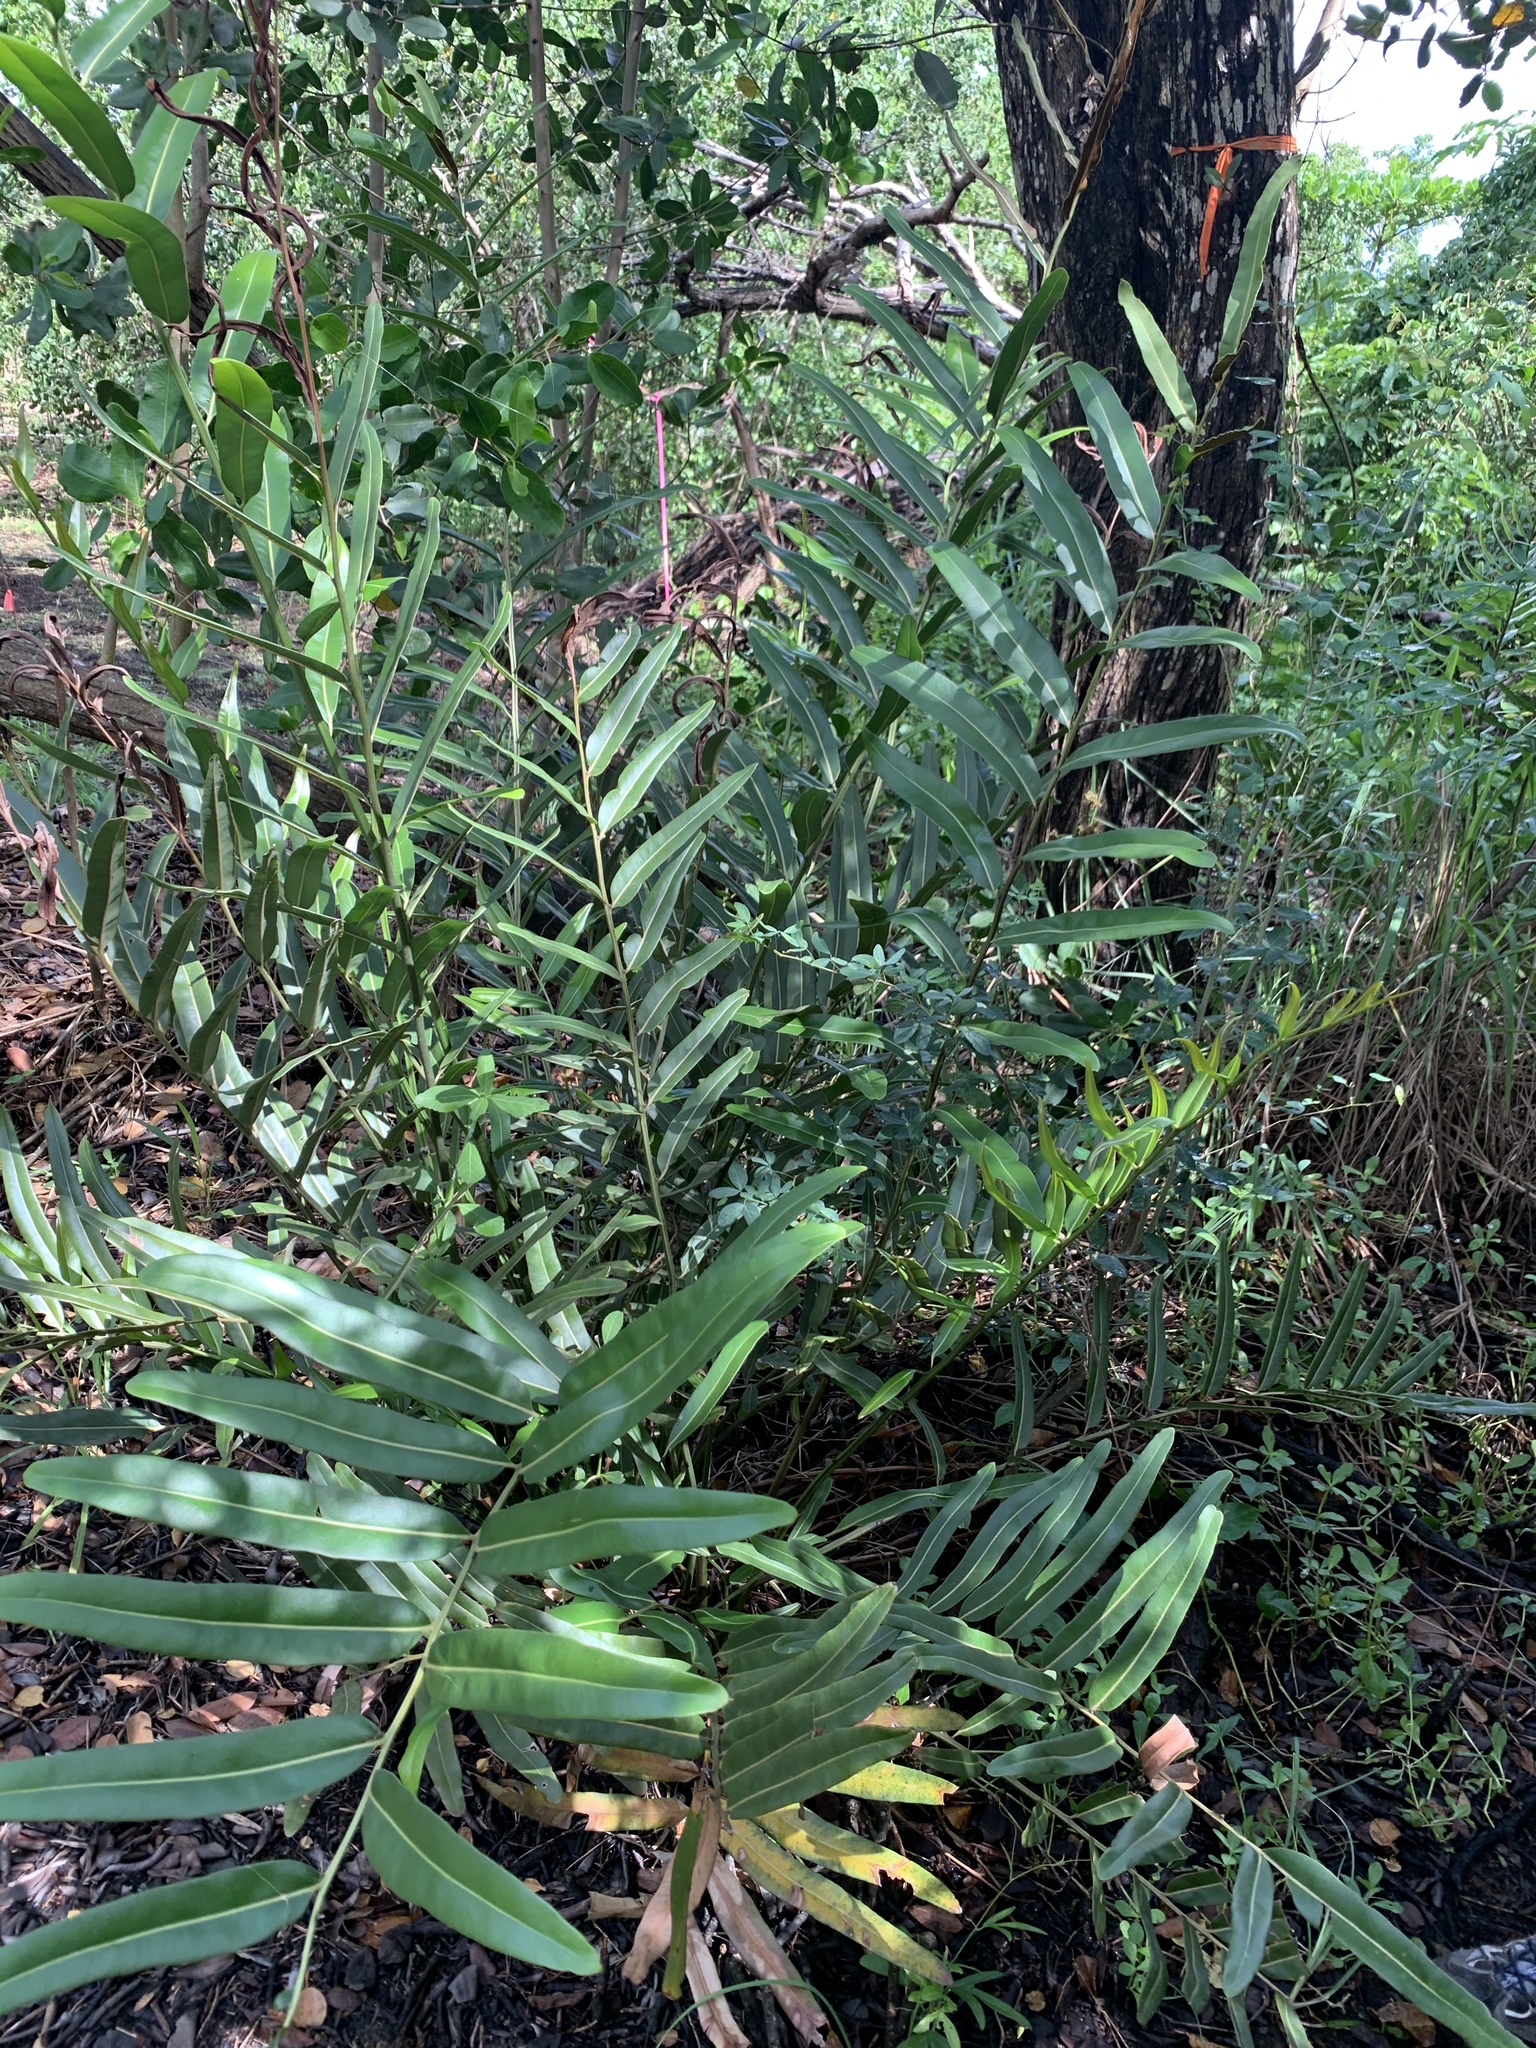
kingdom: Plantae
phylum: Tracheophyta
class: Polypodiopsida
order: Polypodiales
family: Pteridaceae
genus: Acrostichum
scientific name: Acrostichum aureum
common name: Leather fern
